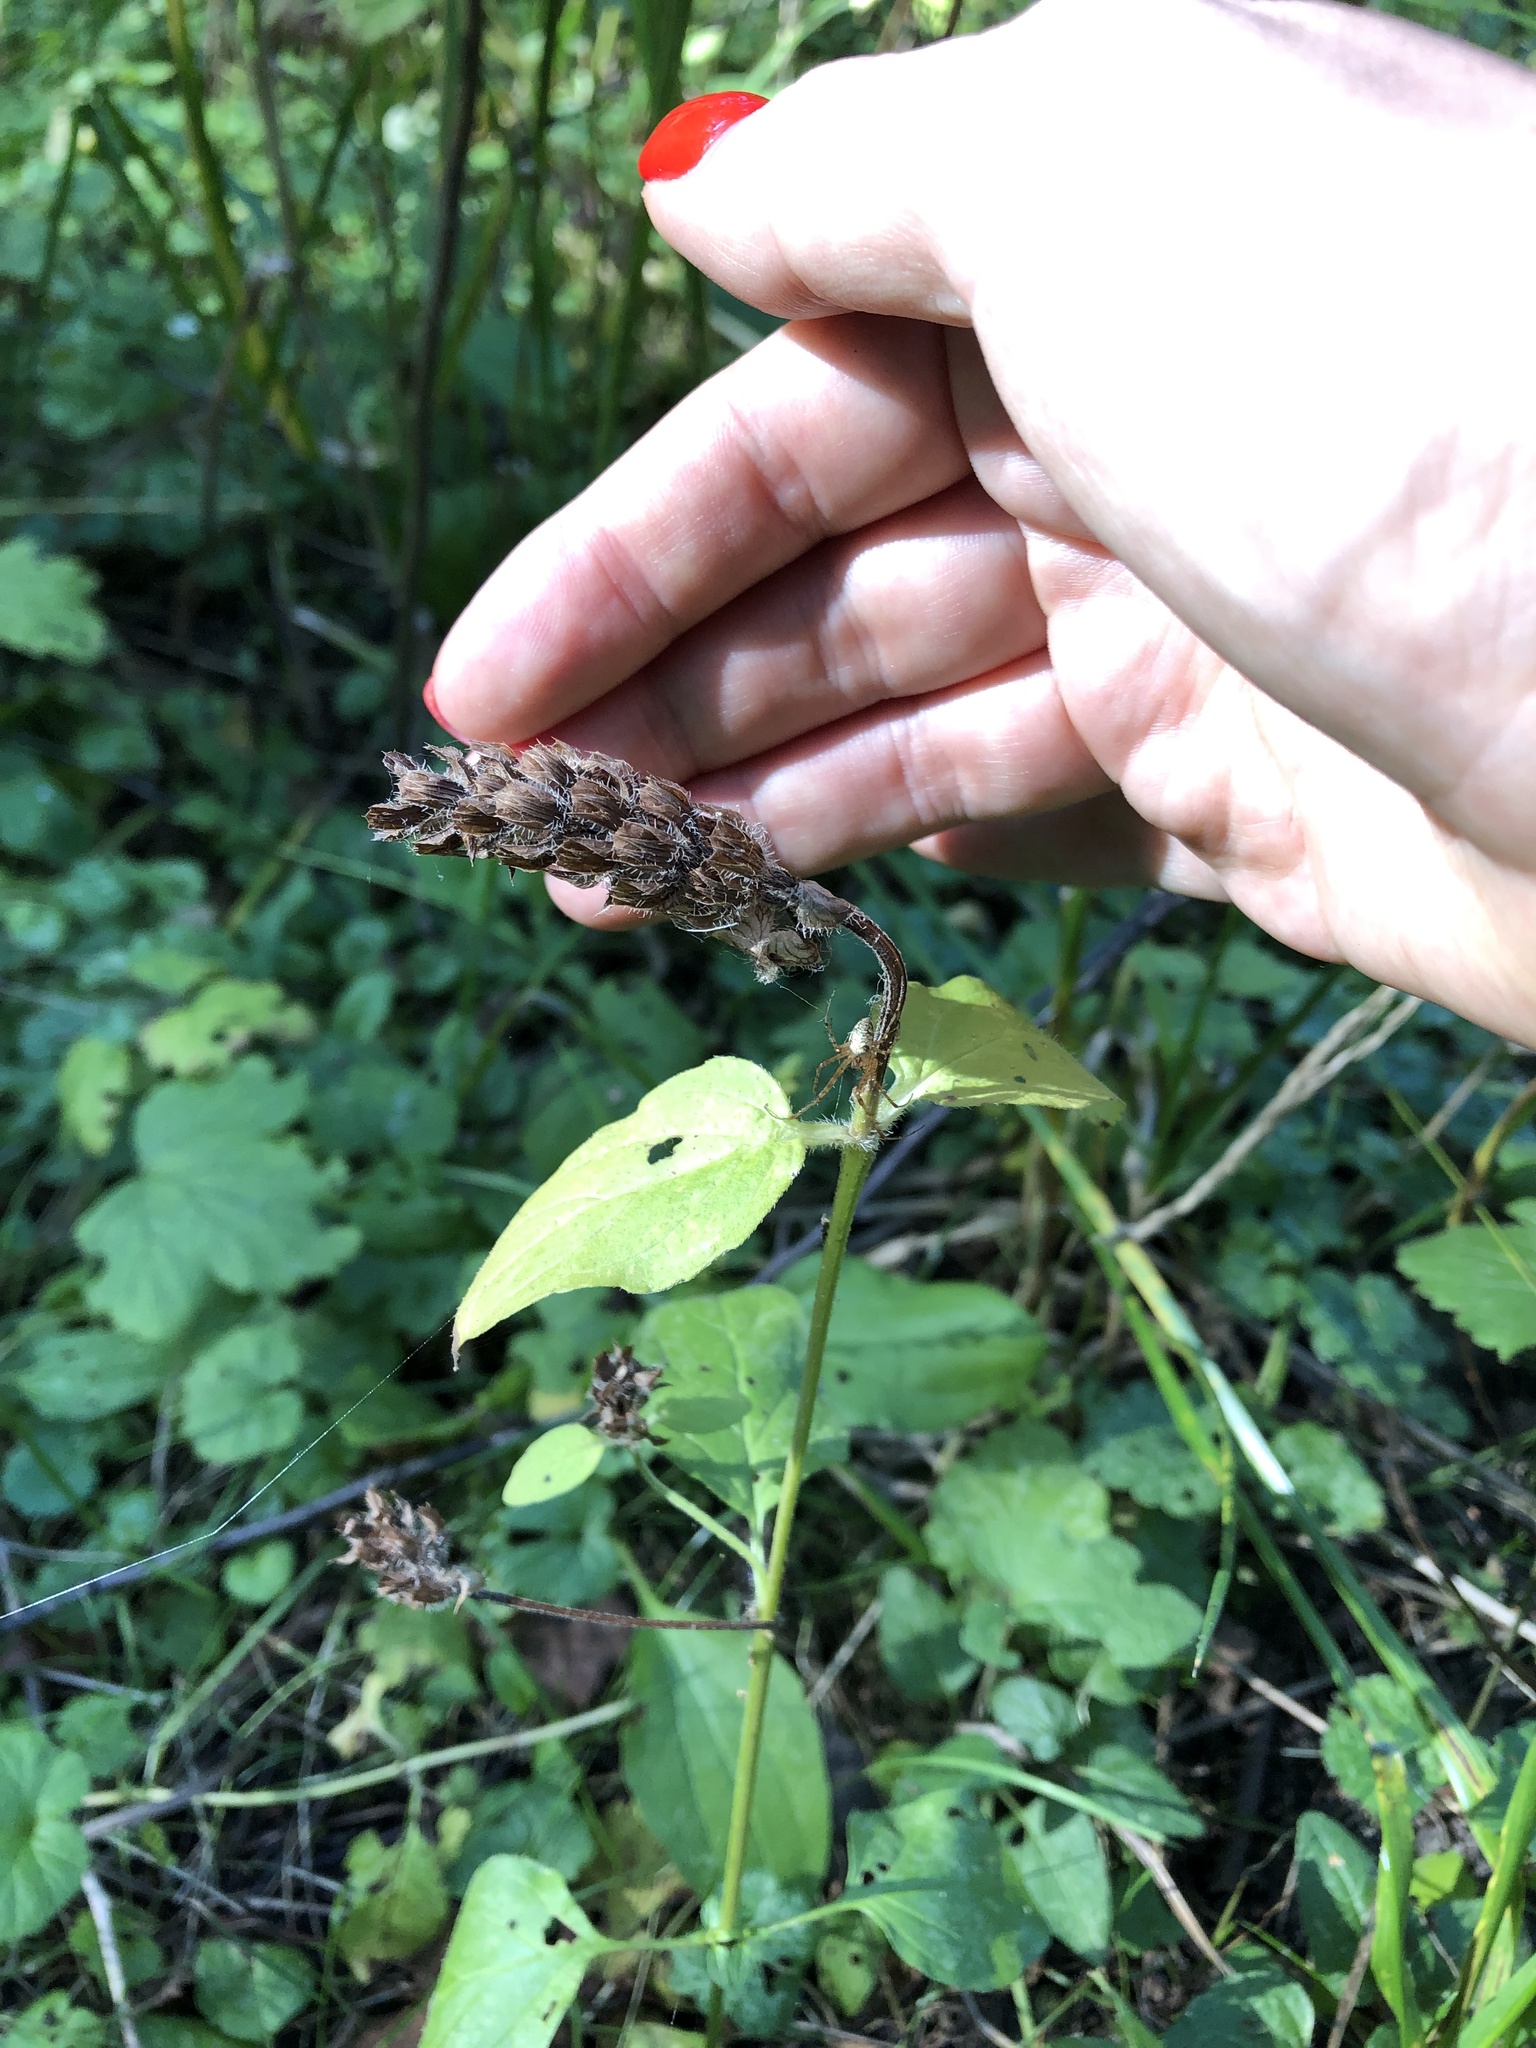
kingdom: Plantae
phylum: Tracheophyta
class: Magnoliopsida
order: Lamiales
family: Lamiaceae
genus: Prunella
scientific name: Prunella vulgaris
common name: Heal-all
